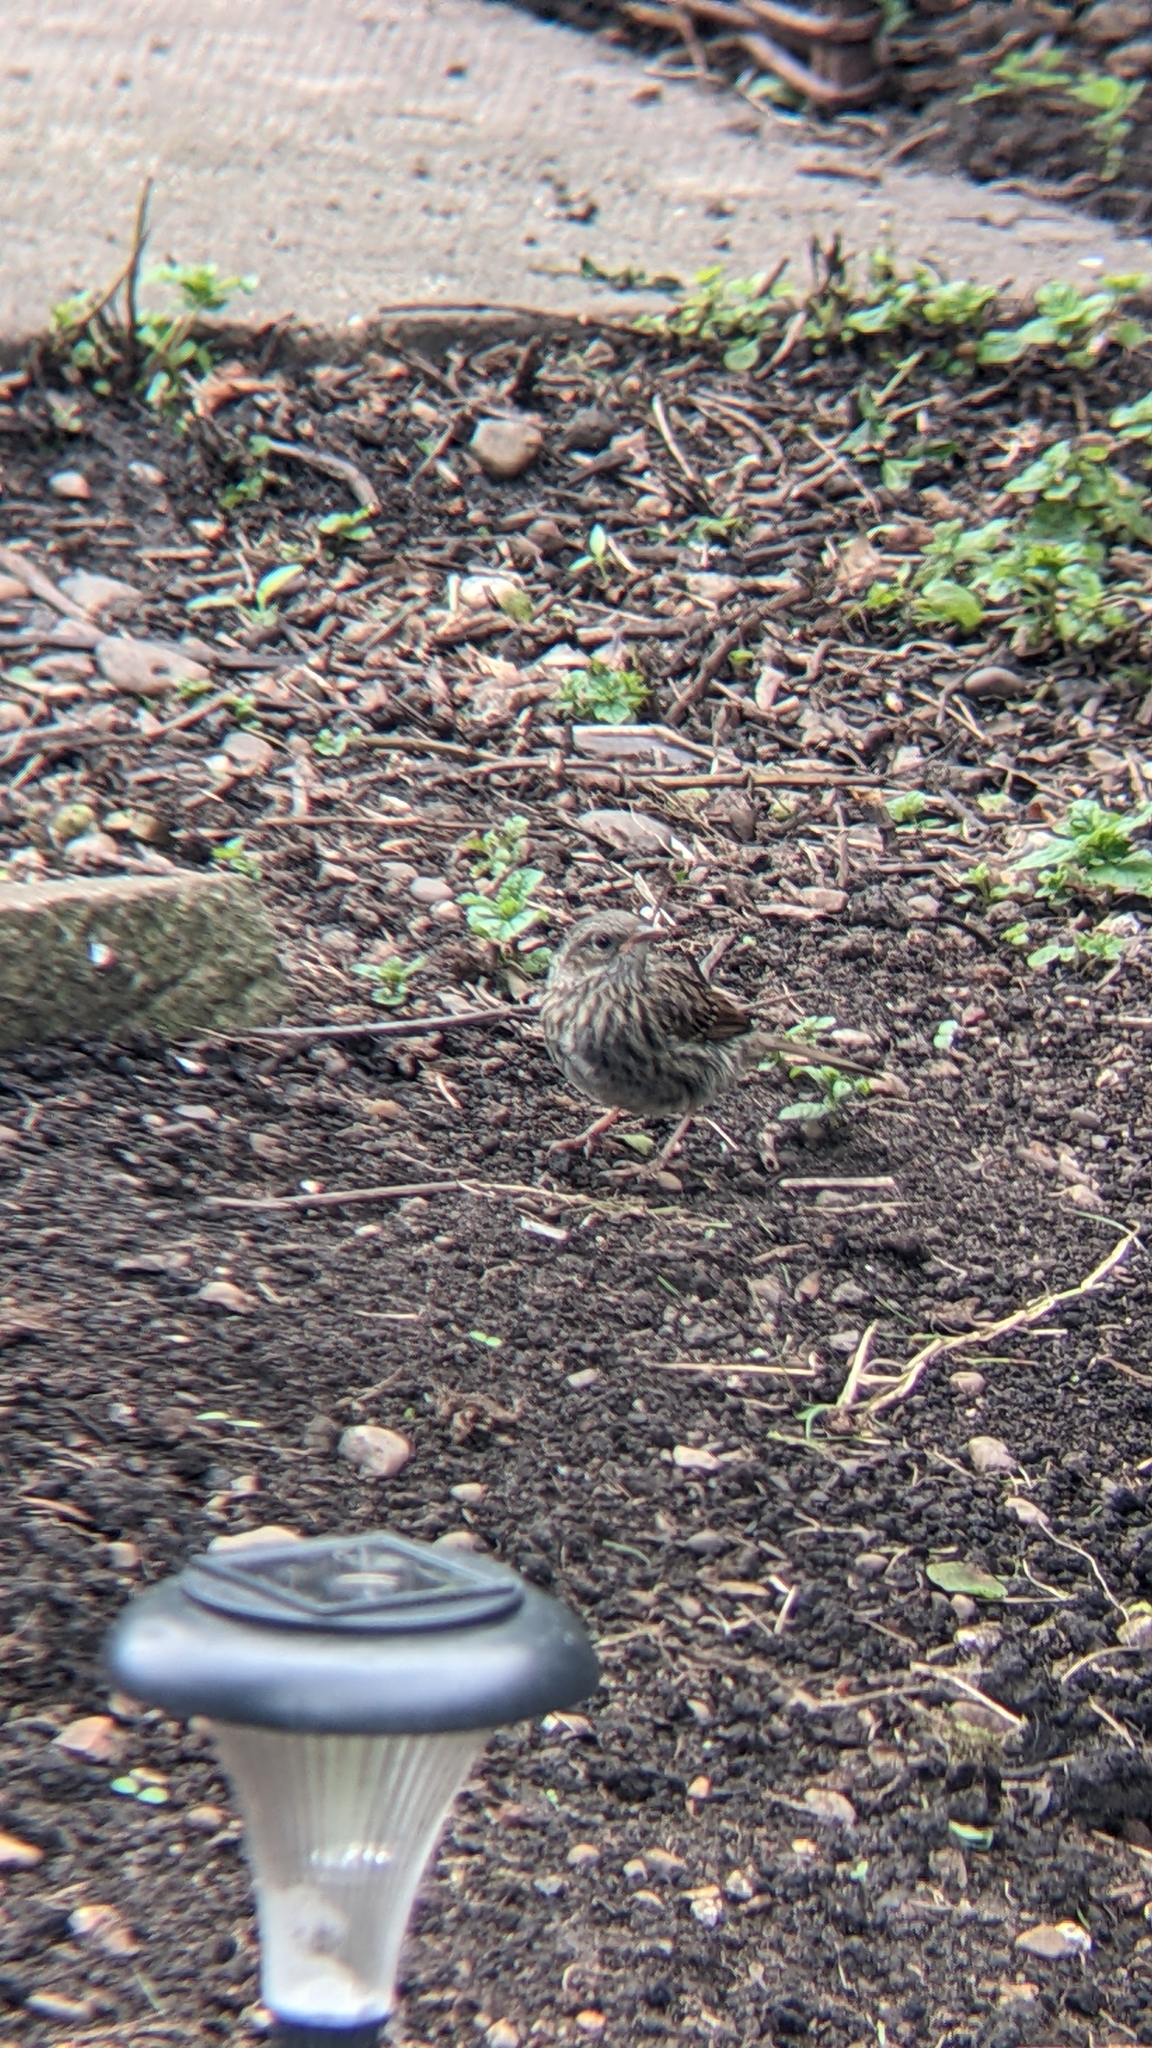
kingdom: Animalia
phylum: Chordata
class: Aves
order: Passeriformes
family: Prunellidae
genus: Prunella
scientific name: Prunella modularis
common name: Dunnock
